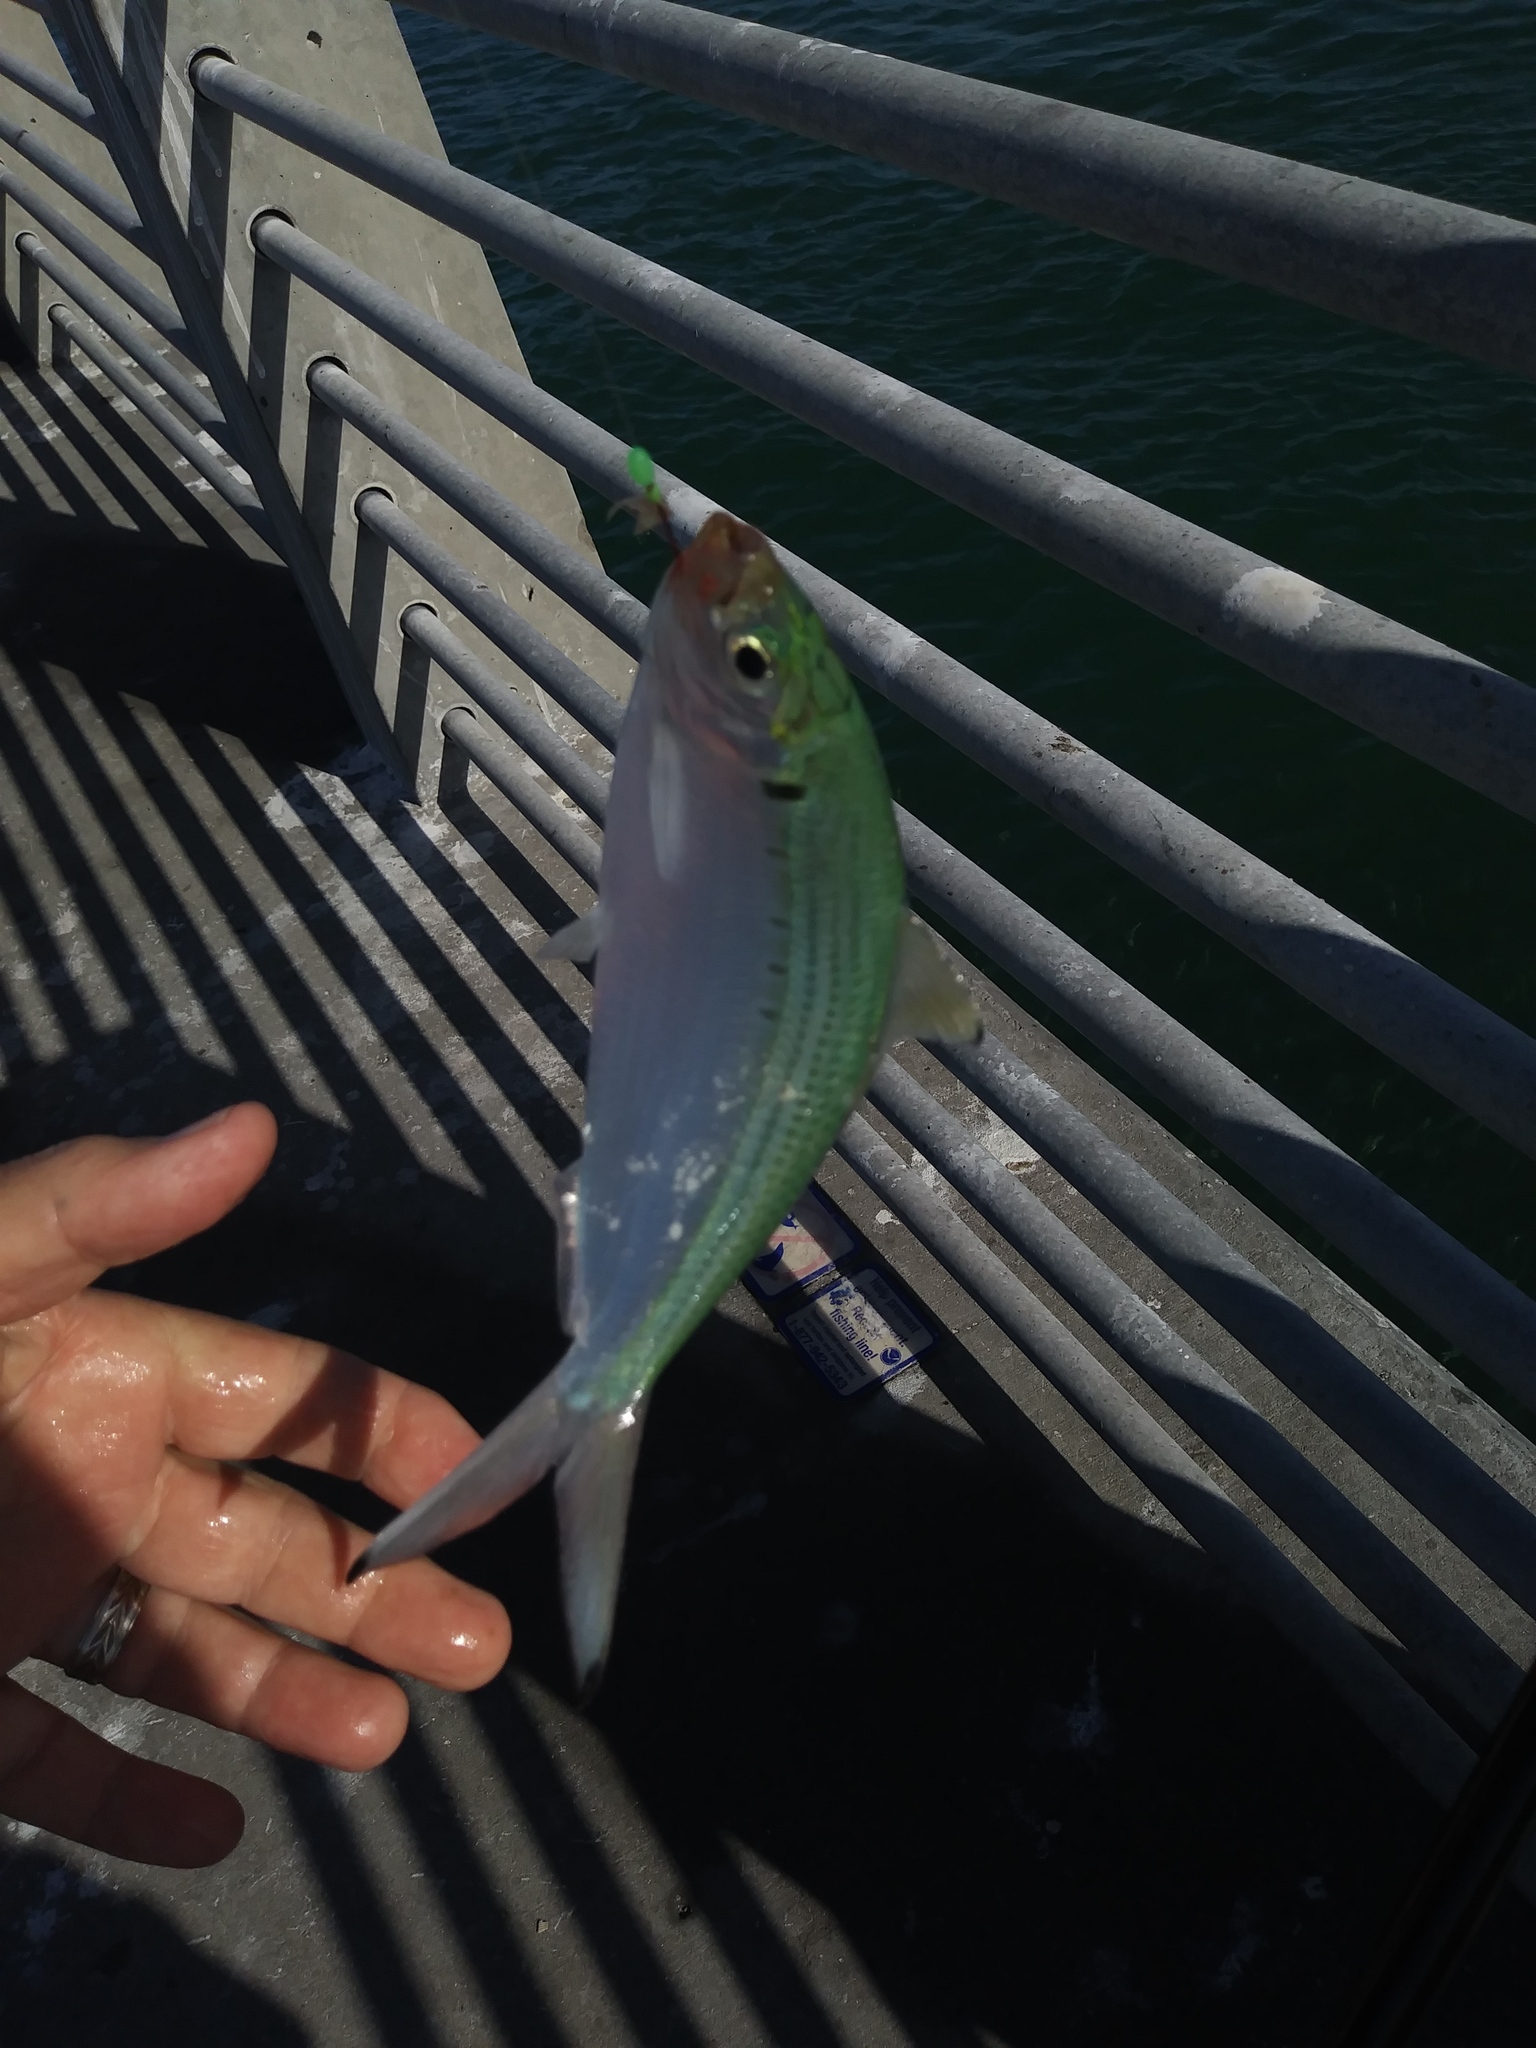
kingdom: Animalia
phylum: Chordata
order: Clupeiformes
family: Clupeidae
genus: Opisthonema
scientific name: Opisthonema oglinum
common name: Thread herring
